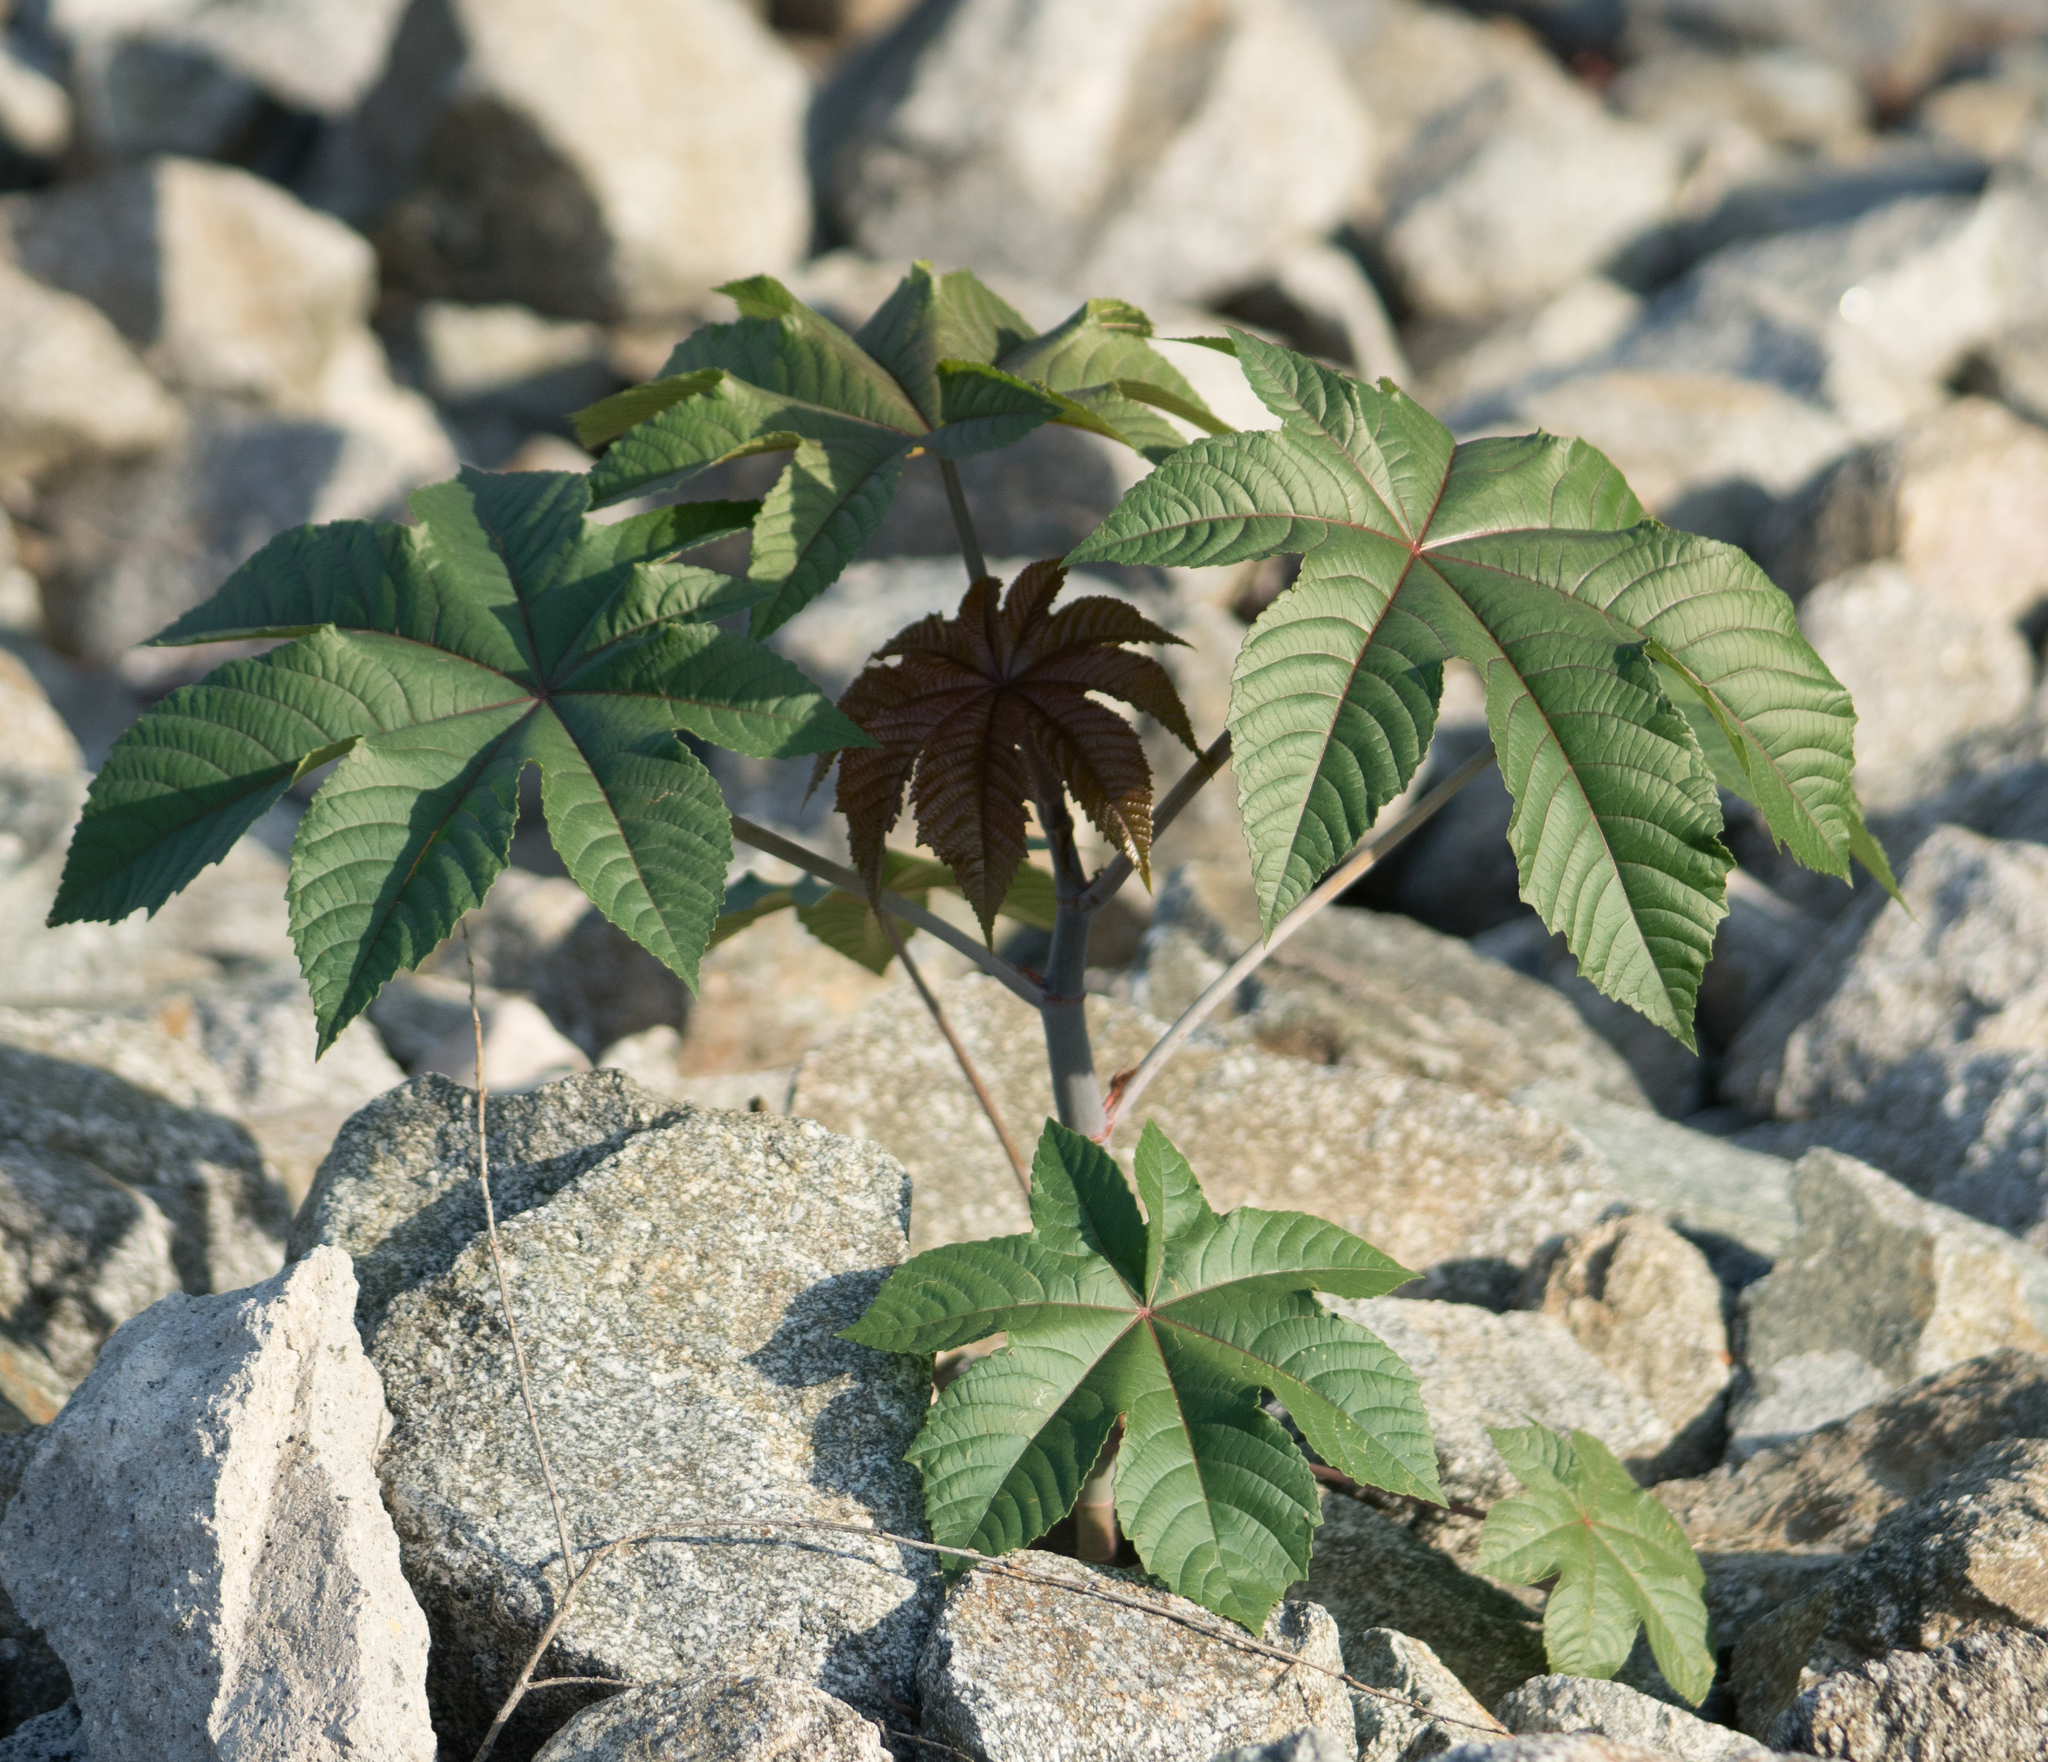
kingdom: Plantae
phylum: Tracheophyta
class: Magnoliopsida
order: Malpighiales
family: Euphorbiaceae
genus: Ricinus
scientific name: Ricinus communis
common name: Castor-oil-plant
